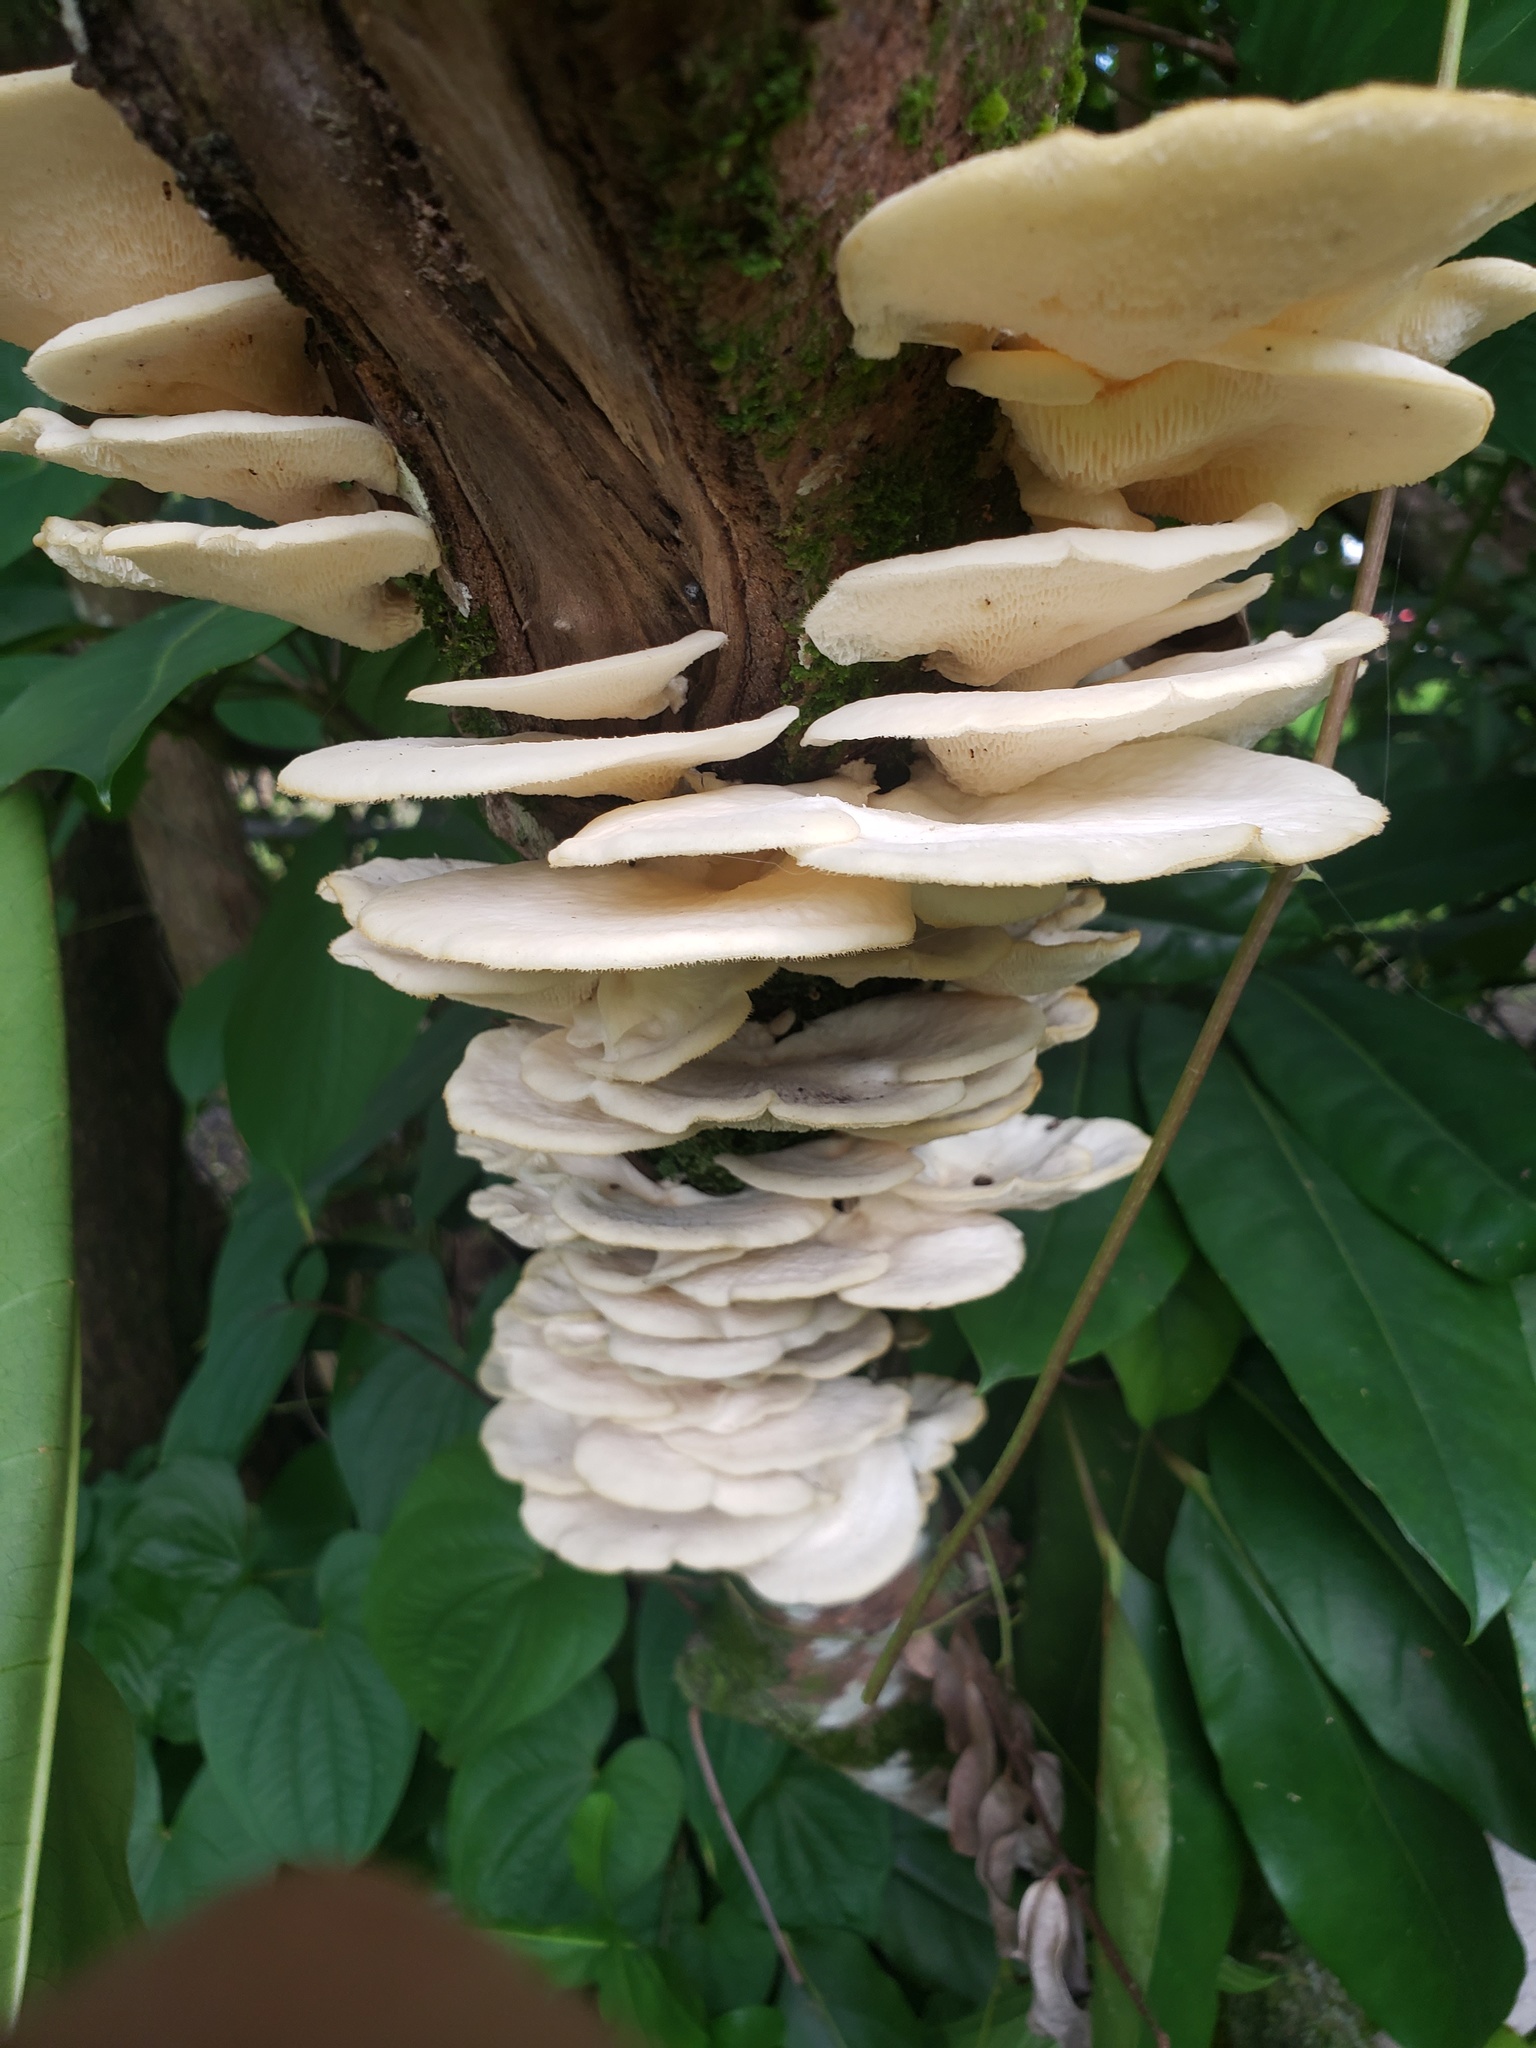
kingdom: Fungi
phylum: Basidiomycota
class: Agaricomycetes
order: Polyporales
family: Polyporaceae
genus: Favolus
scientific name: Favolus tenuiculus
